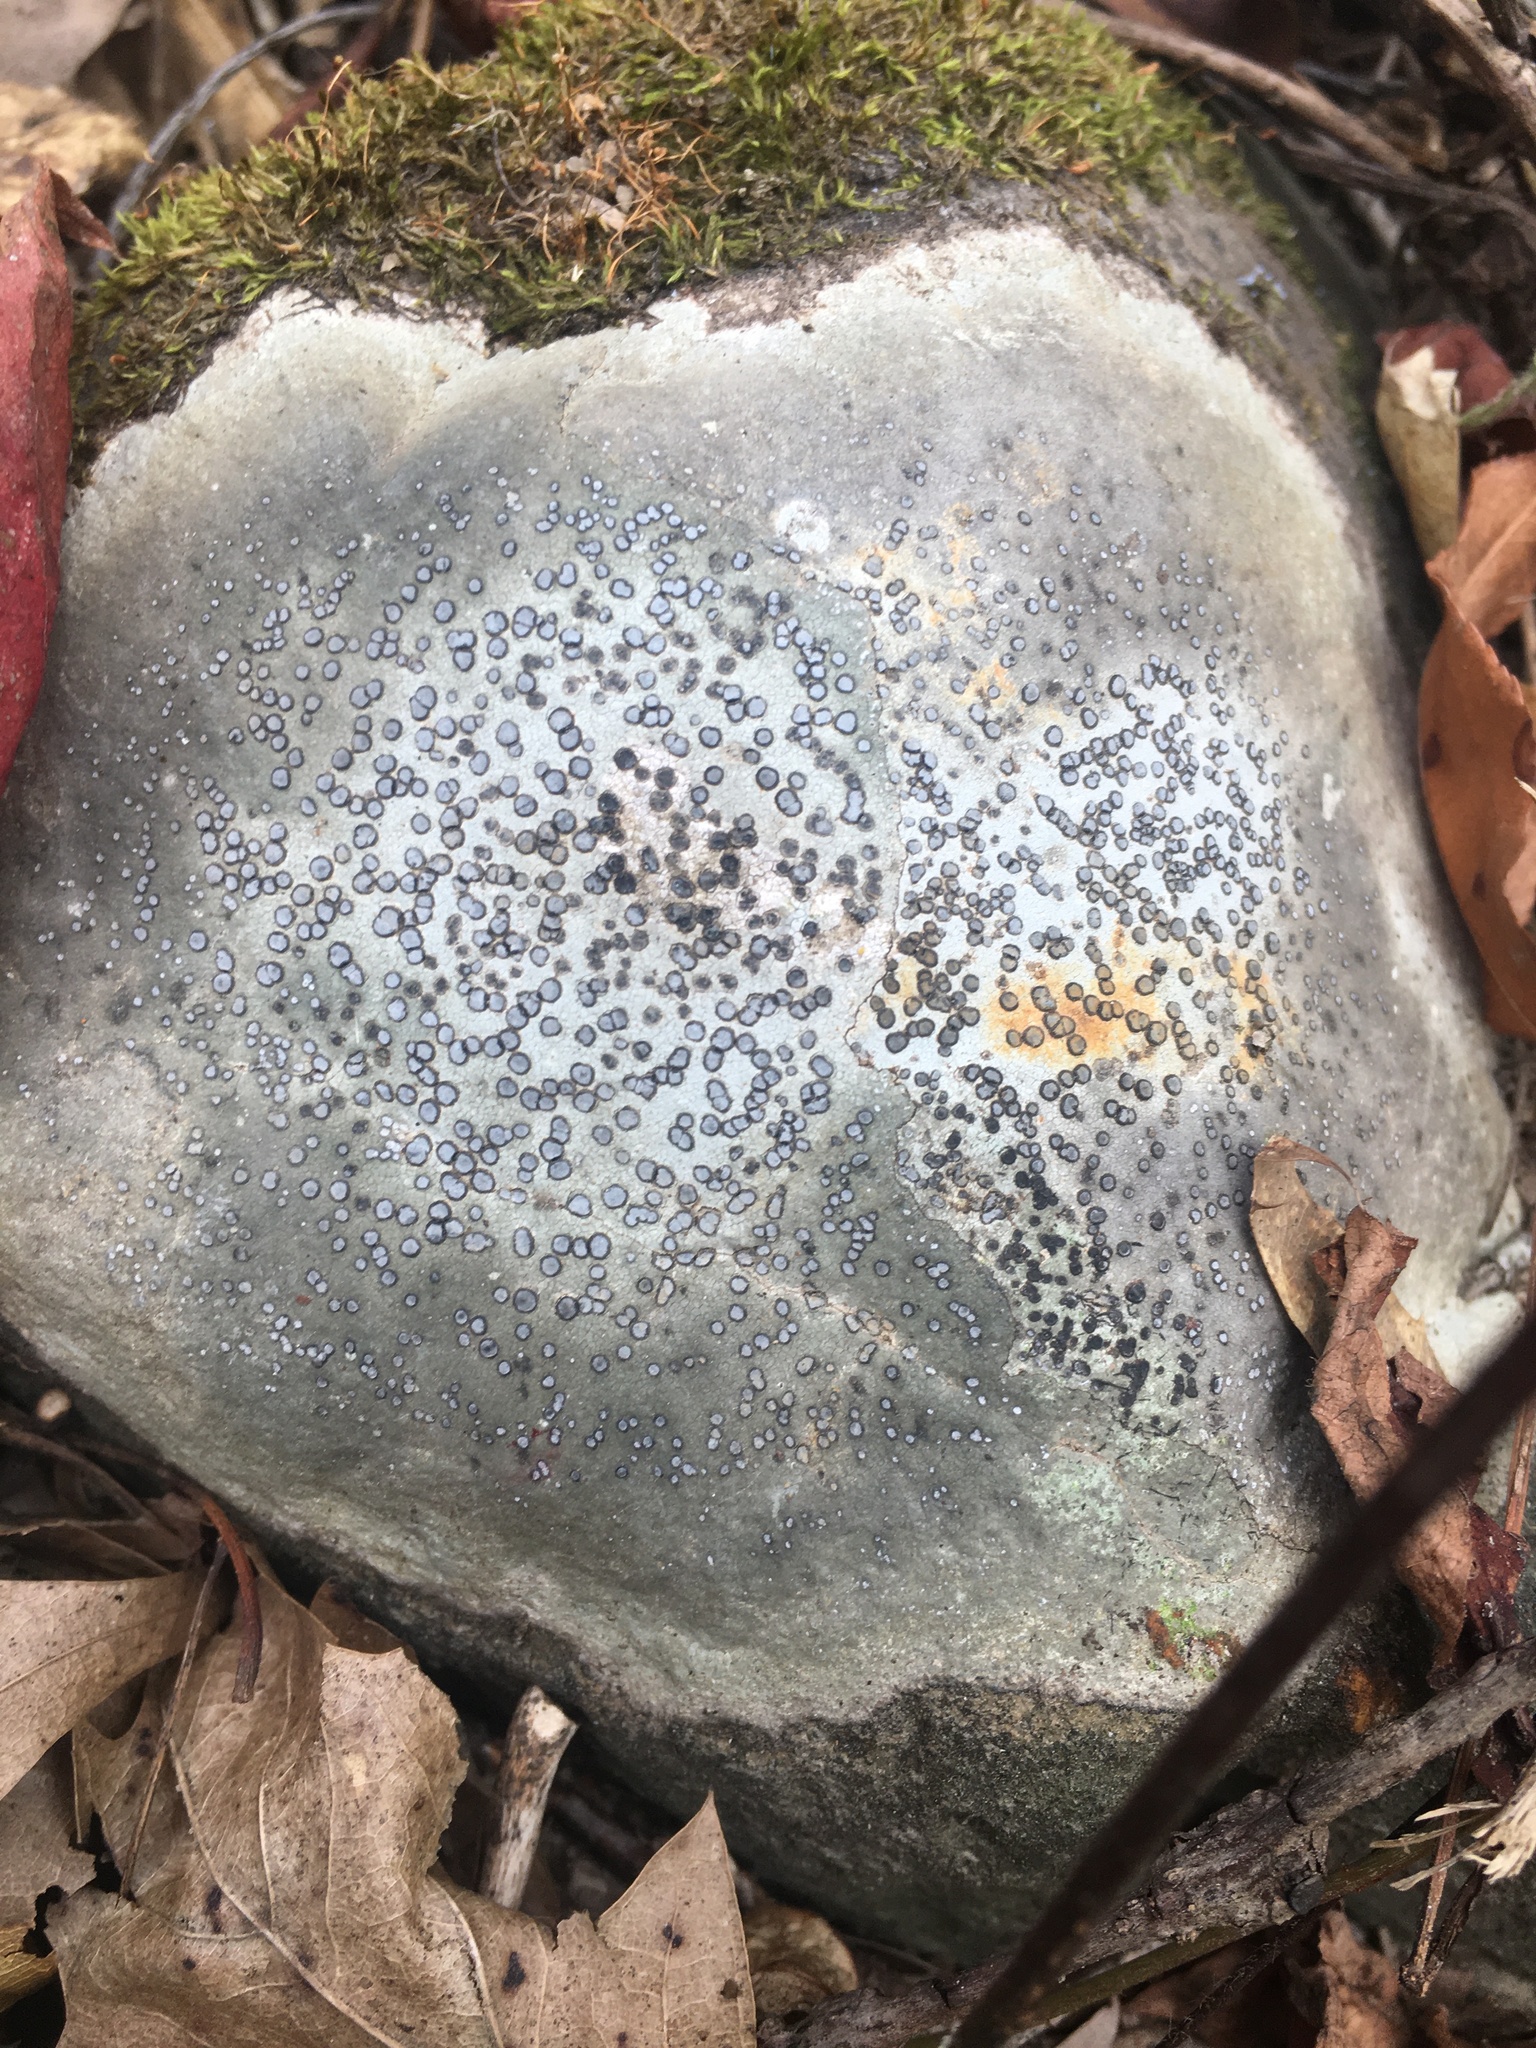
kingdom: Fungi
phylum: Ascomycota
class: Lecanoromycetes
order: Lecideales
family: Lecideaceae
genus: Porpidia
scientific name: Porpidia albocaerulescens
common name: Smokey-eyed boulder lichen
